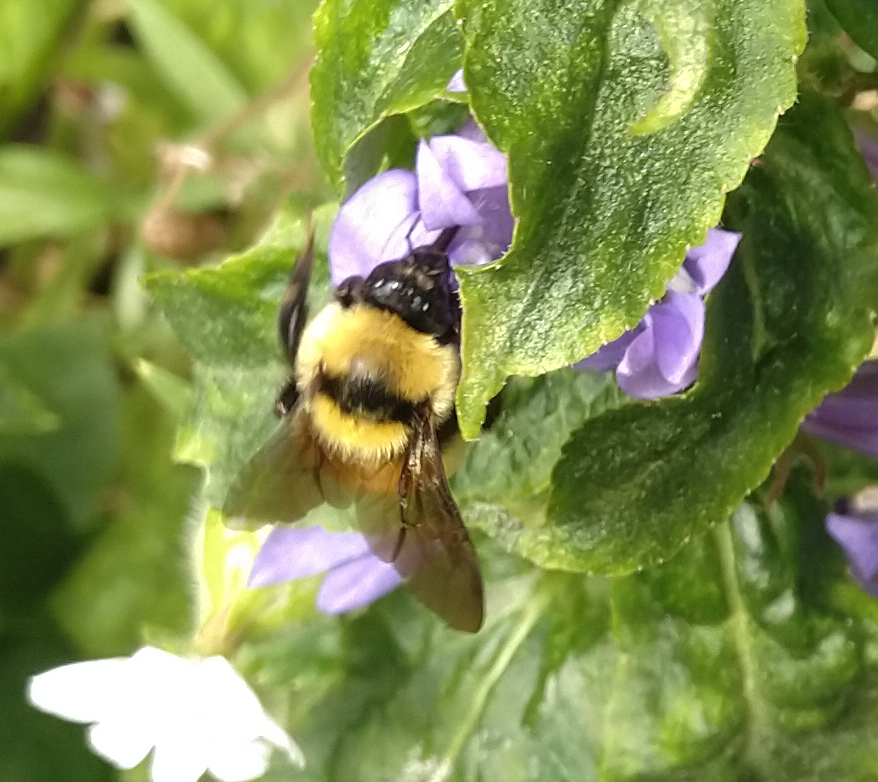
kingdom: Animalia
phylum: Arthropoda
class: Insecta
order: Hymenoptera
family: Apidae
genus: Bombus
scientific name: Bombus fervidus
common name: Yellow bumble bee
